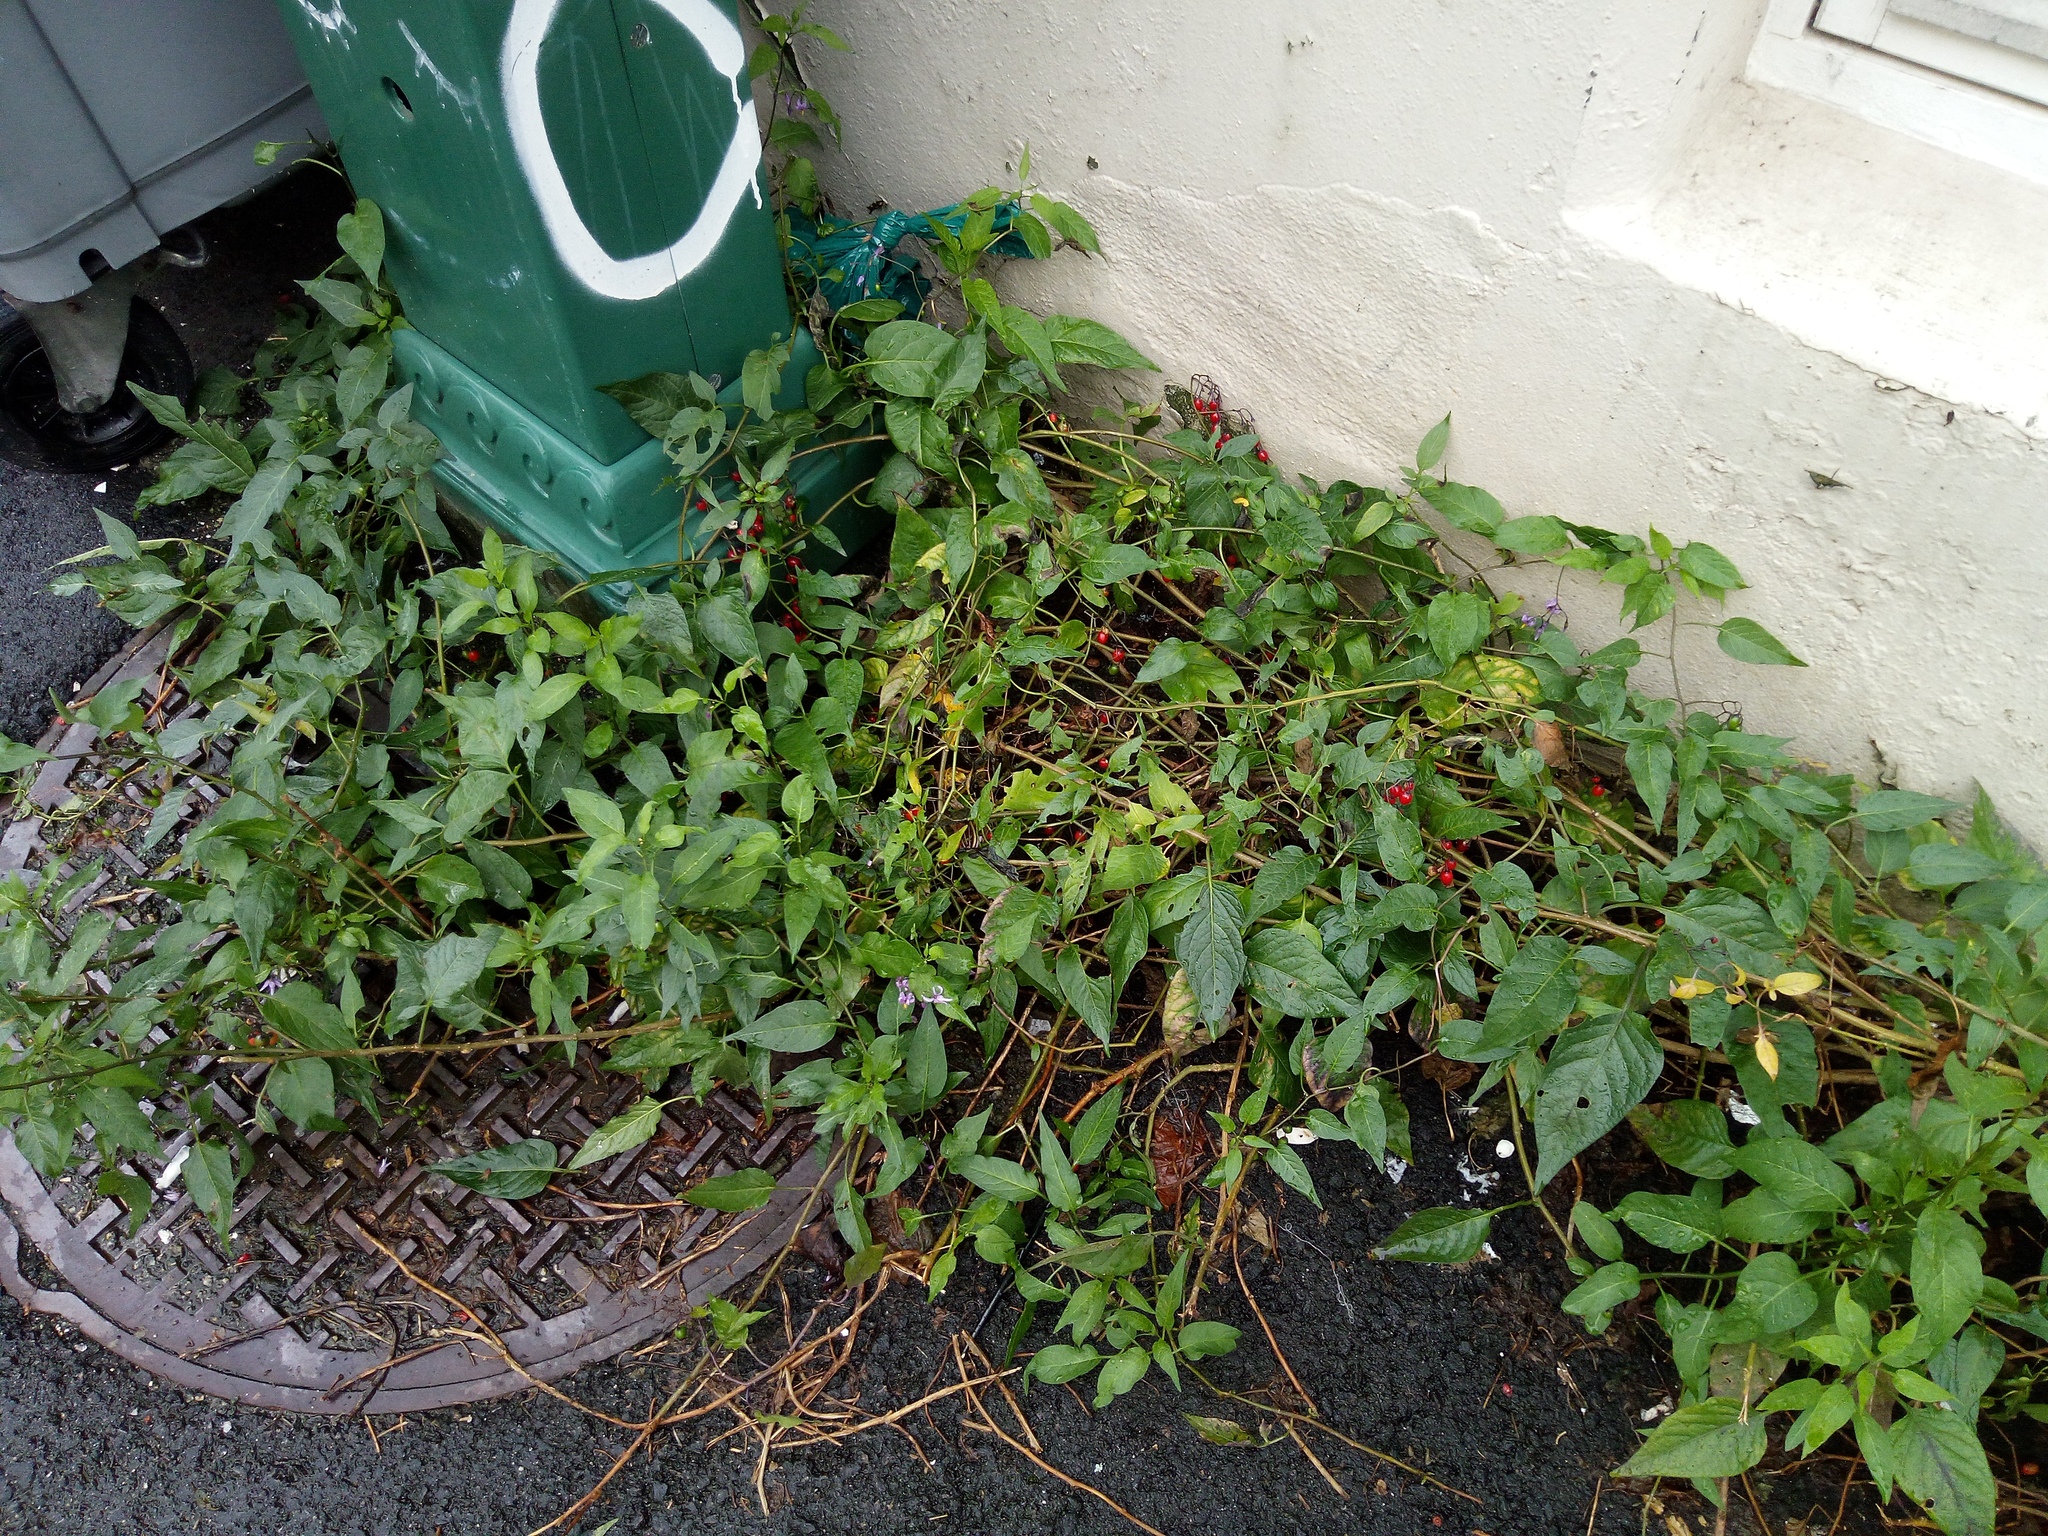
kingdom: Plantae
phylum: Tracheophyta
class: Magnoliopsida
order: Solanales
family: Solanaceae
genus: Solanum
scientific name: Solanum dulcamara
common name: Climbing nightshade
